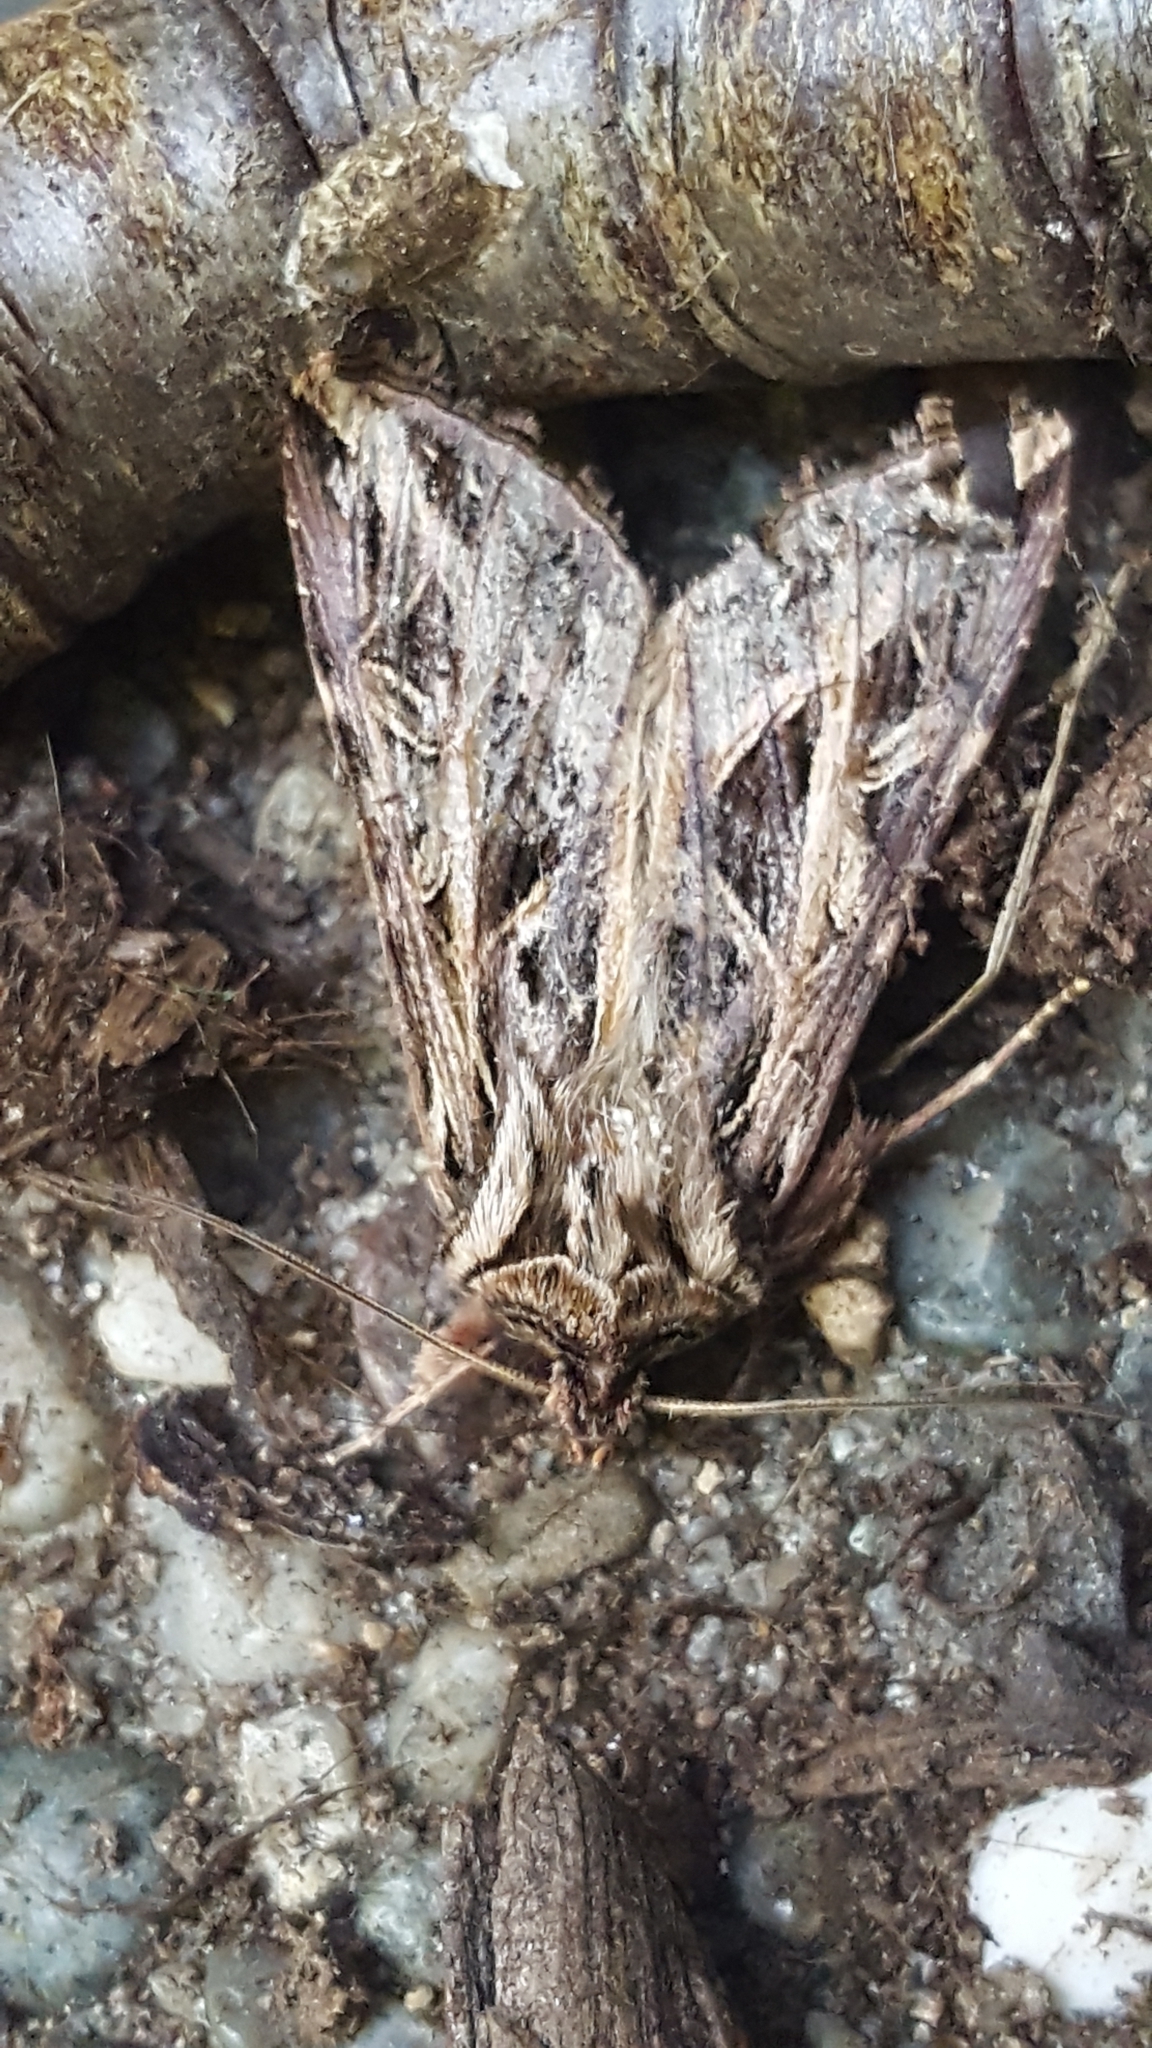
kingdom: Animalia
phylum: Arthropoda
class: Insecta
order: Lepidoptera
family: Noctuidae
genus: Dargida
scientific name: Dargida procinctus
